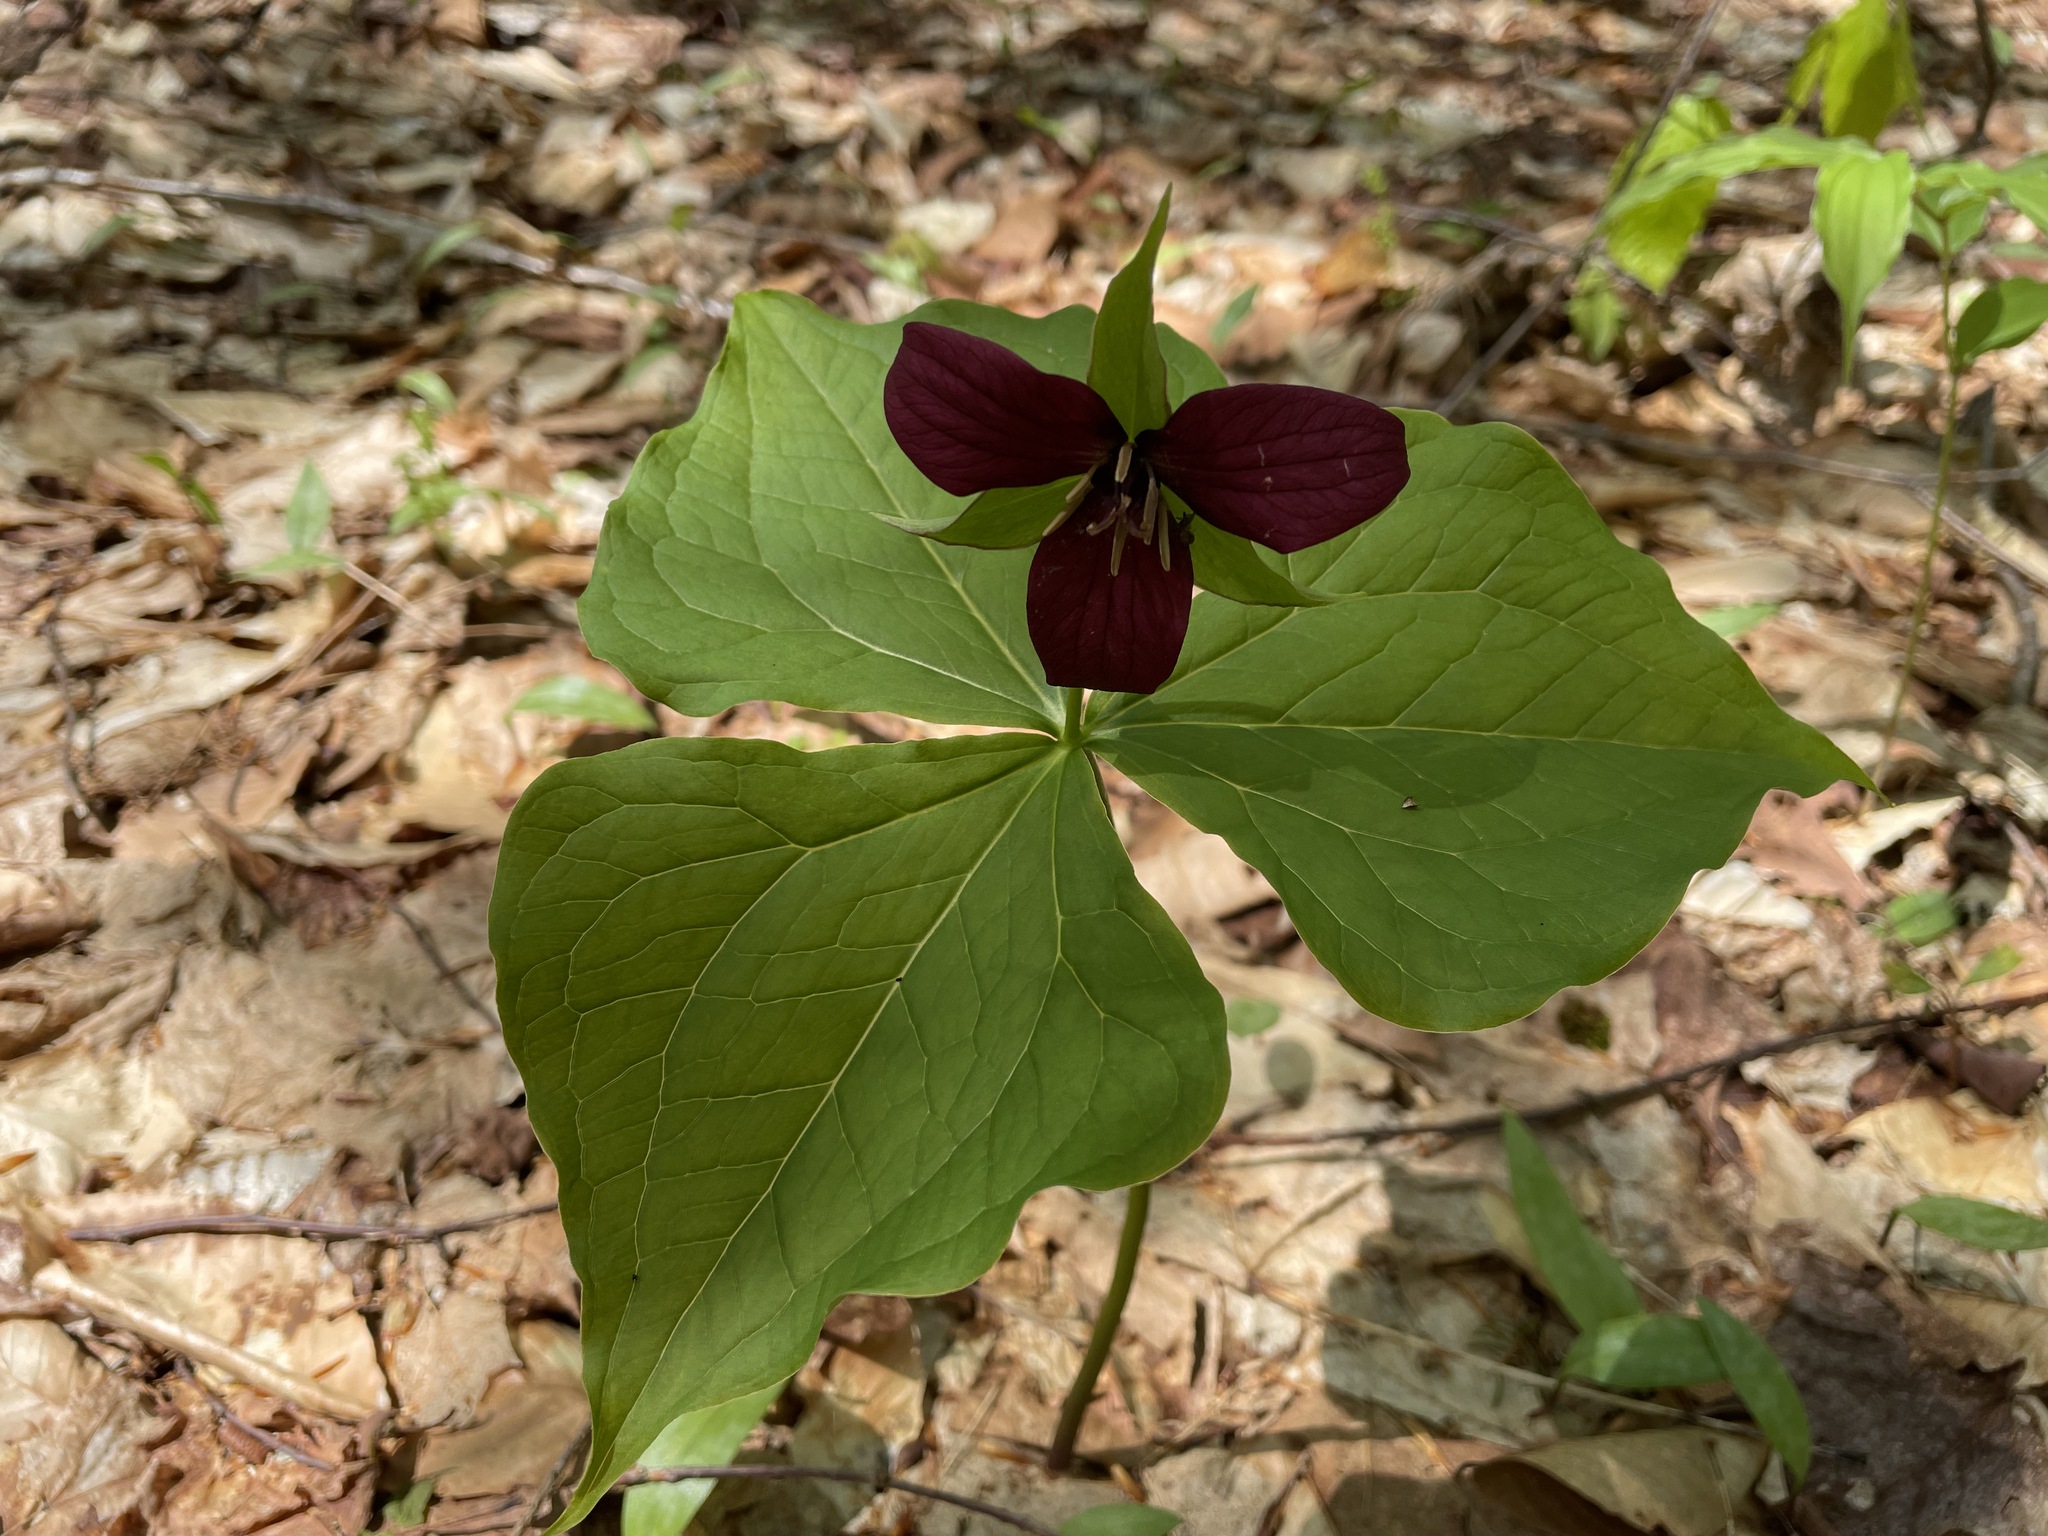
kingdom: Plantae
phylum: Tracheophyta
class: Liliopsida
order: Liliales
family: Melanthiaceae
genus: Trillium
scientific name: Trillium erectum
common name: Purple trillium
